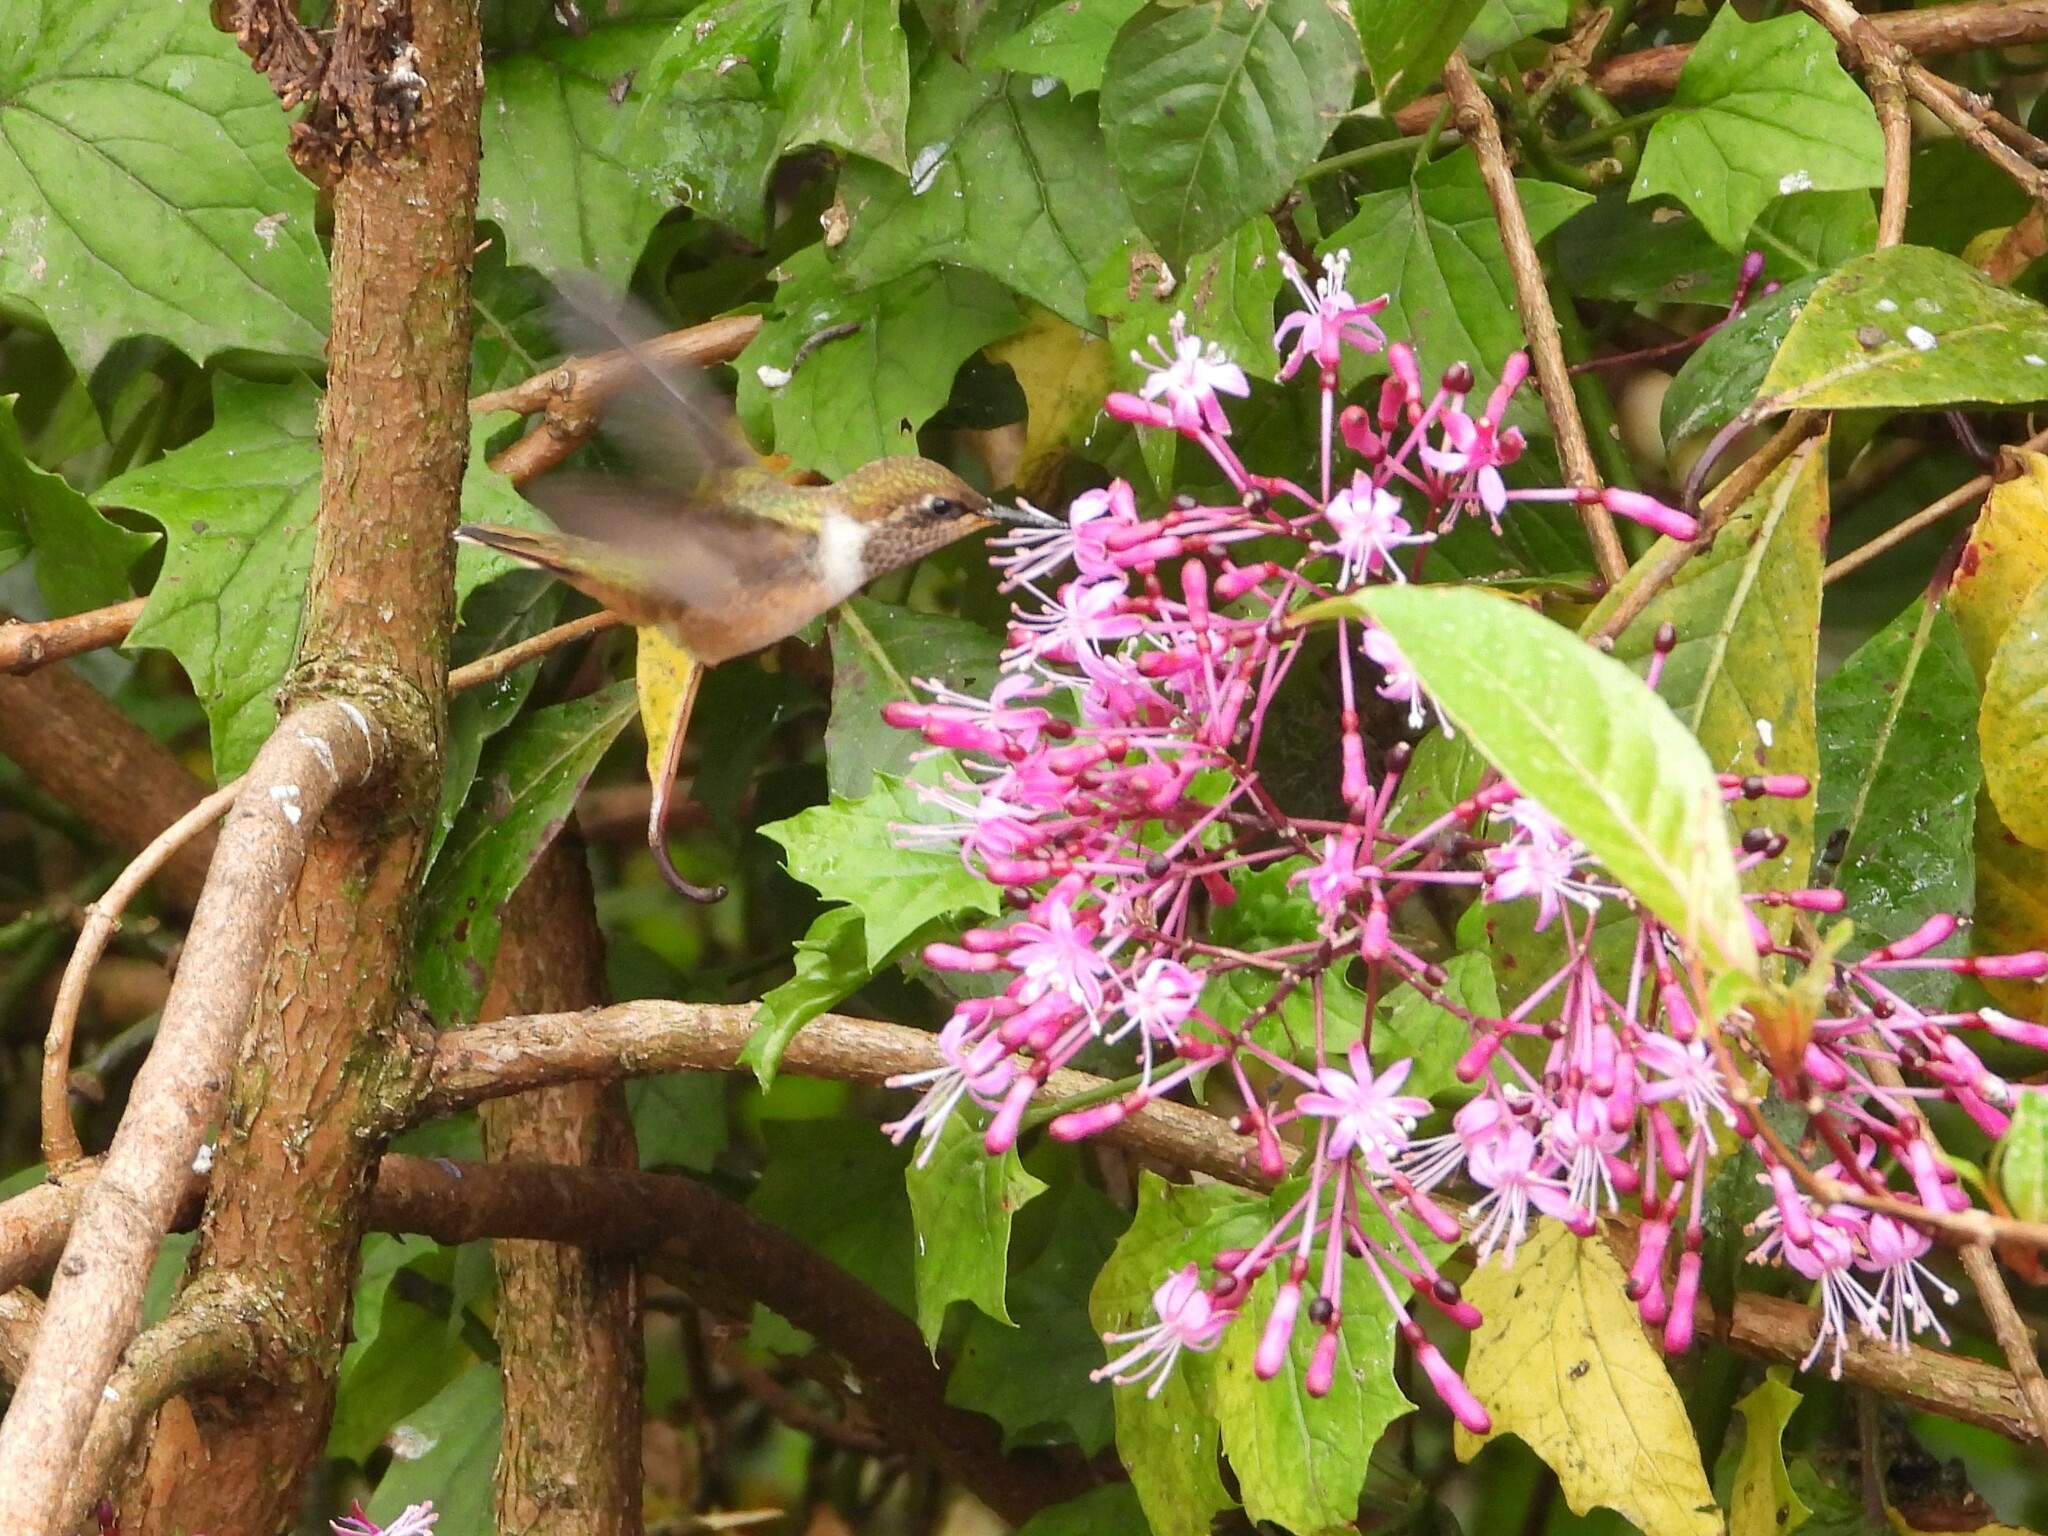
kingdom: Animalia
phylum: Chordata
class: Aves
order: Apodiformes
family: Trochilidae
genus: Selasphorus
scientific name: Selasphorus scintilla
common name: Scintillant hummingbird
